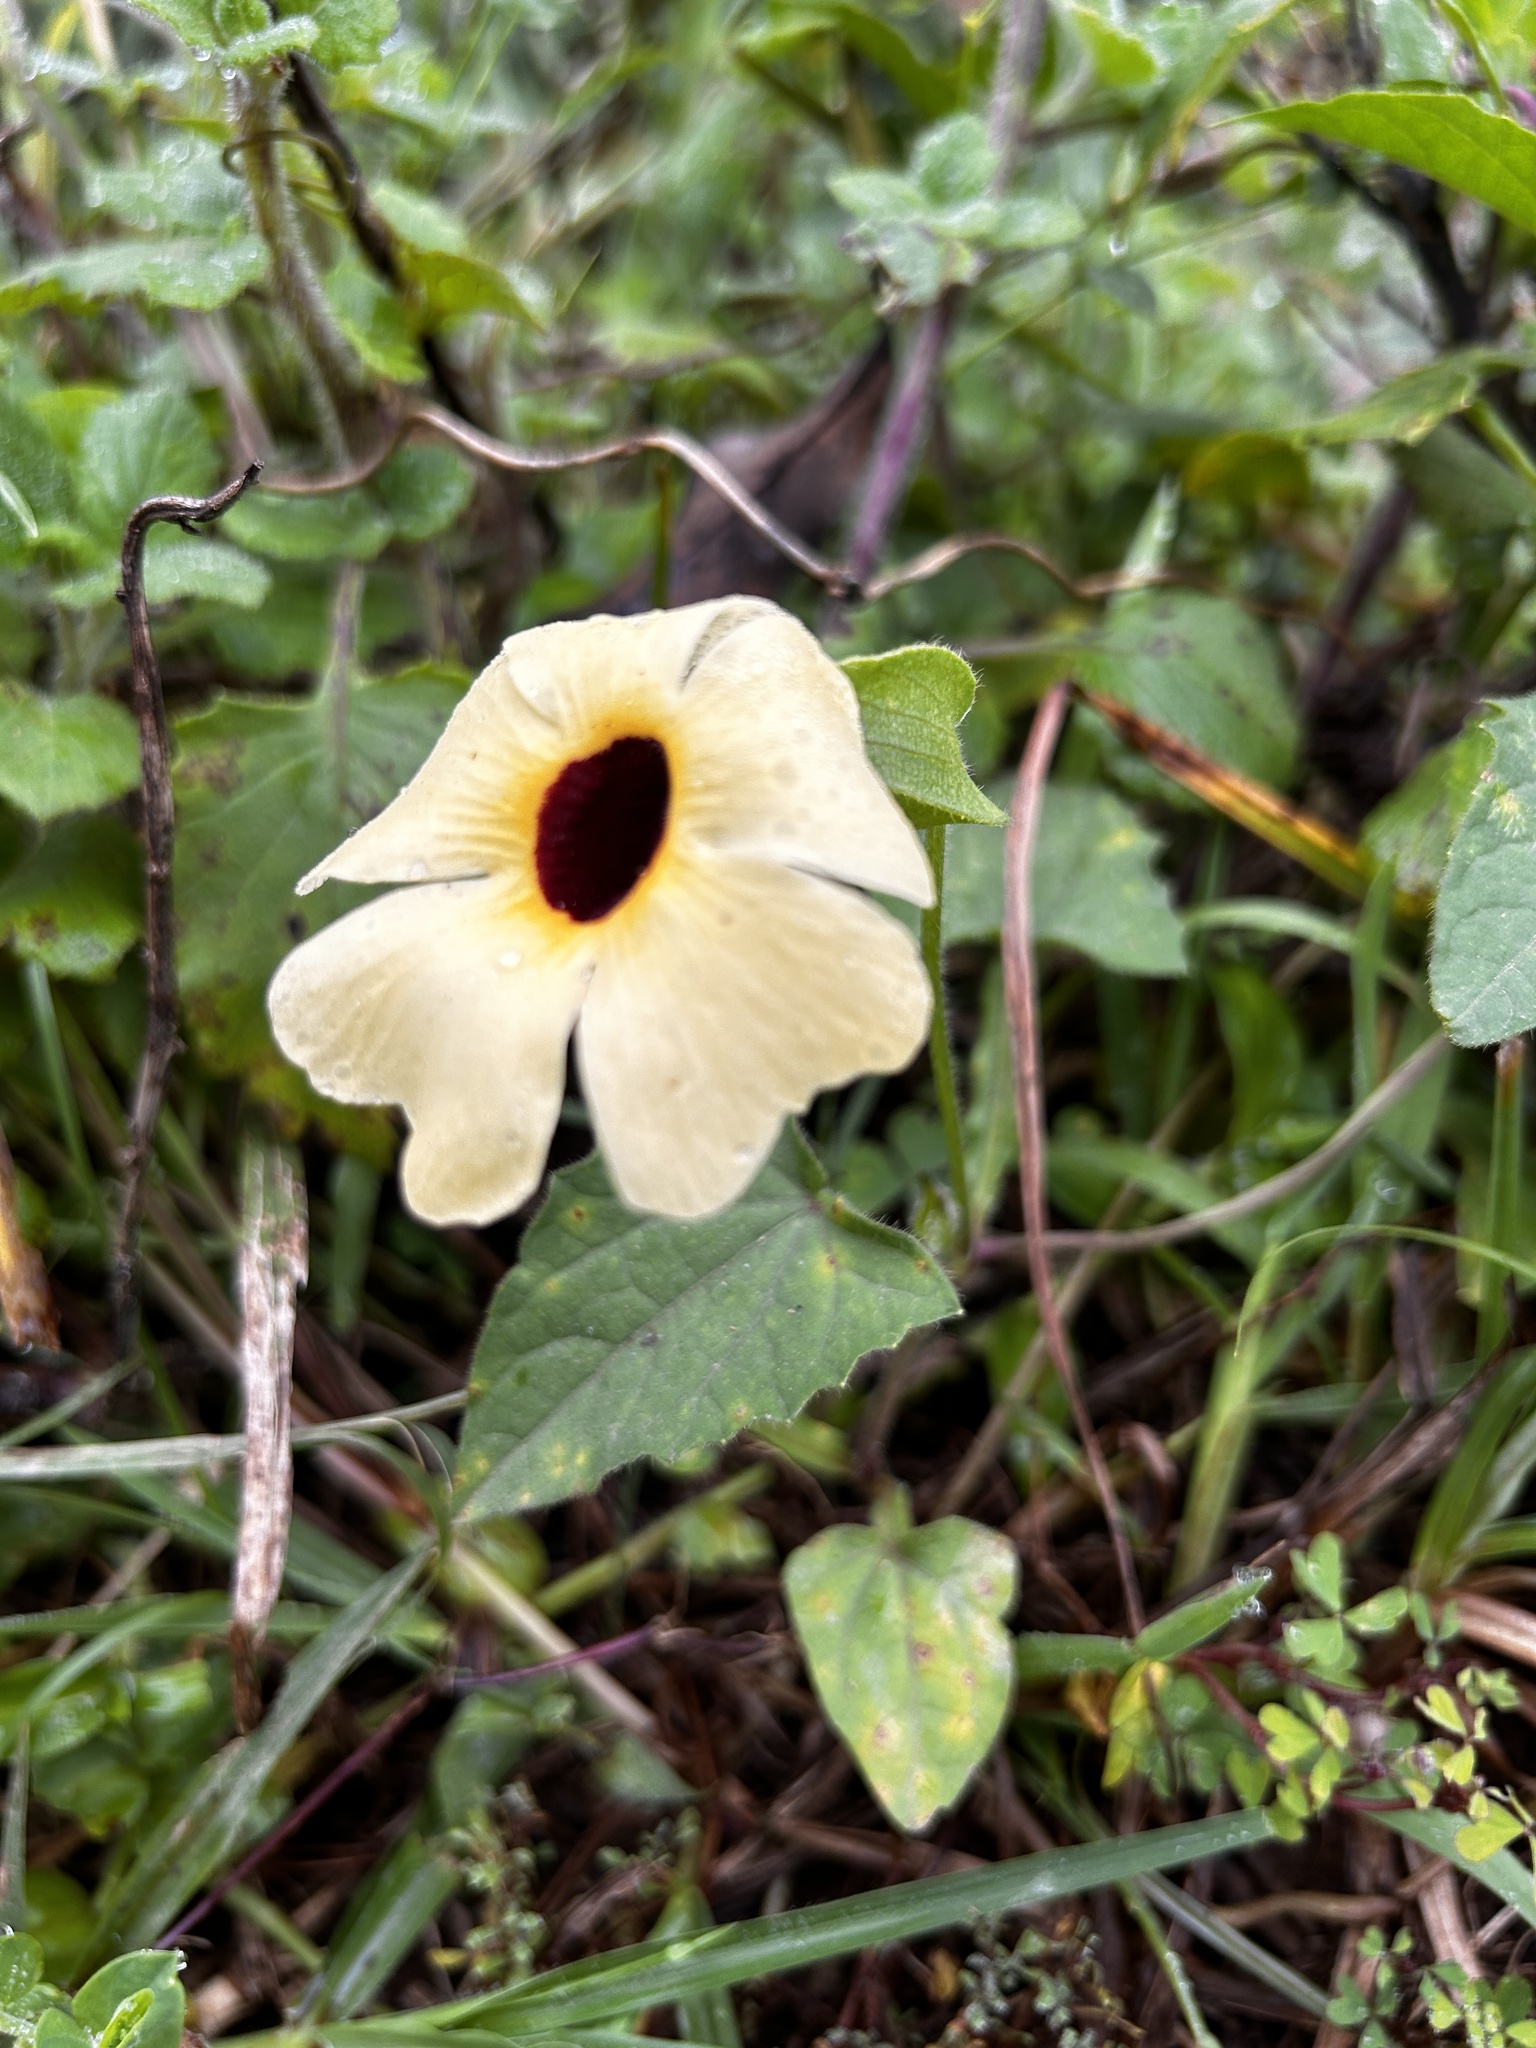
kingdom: Plantae
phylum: Tracheophyta
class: Magnoliopsida
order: Lamiales
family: Acanthaceae
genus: Thunbergia
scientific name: Thunbergia alata
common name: Blackeyed susan vine
